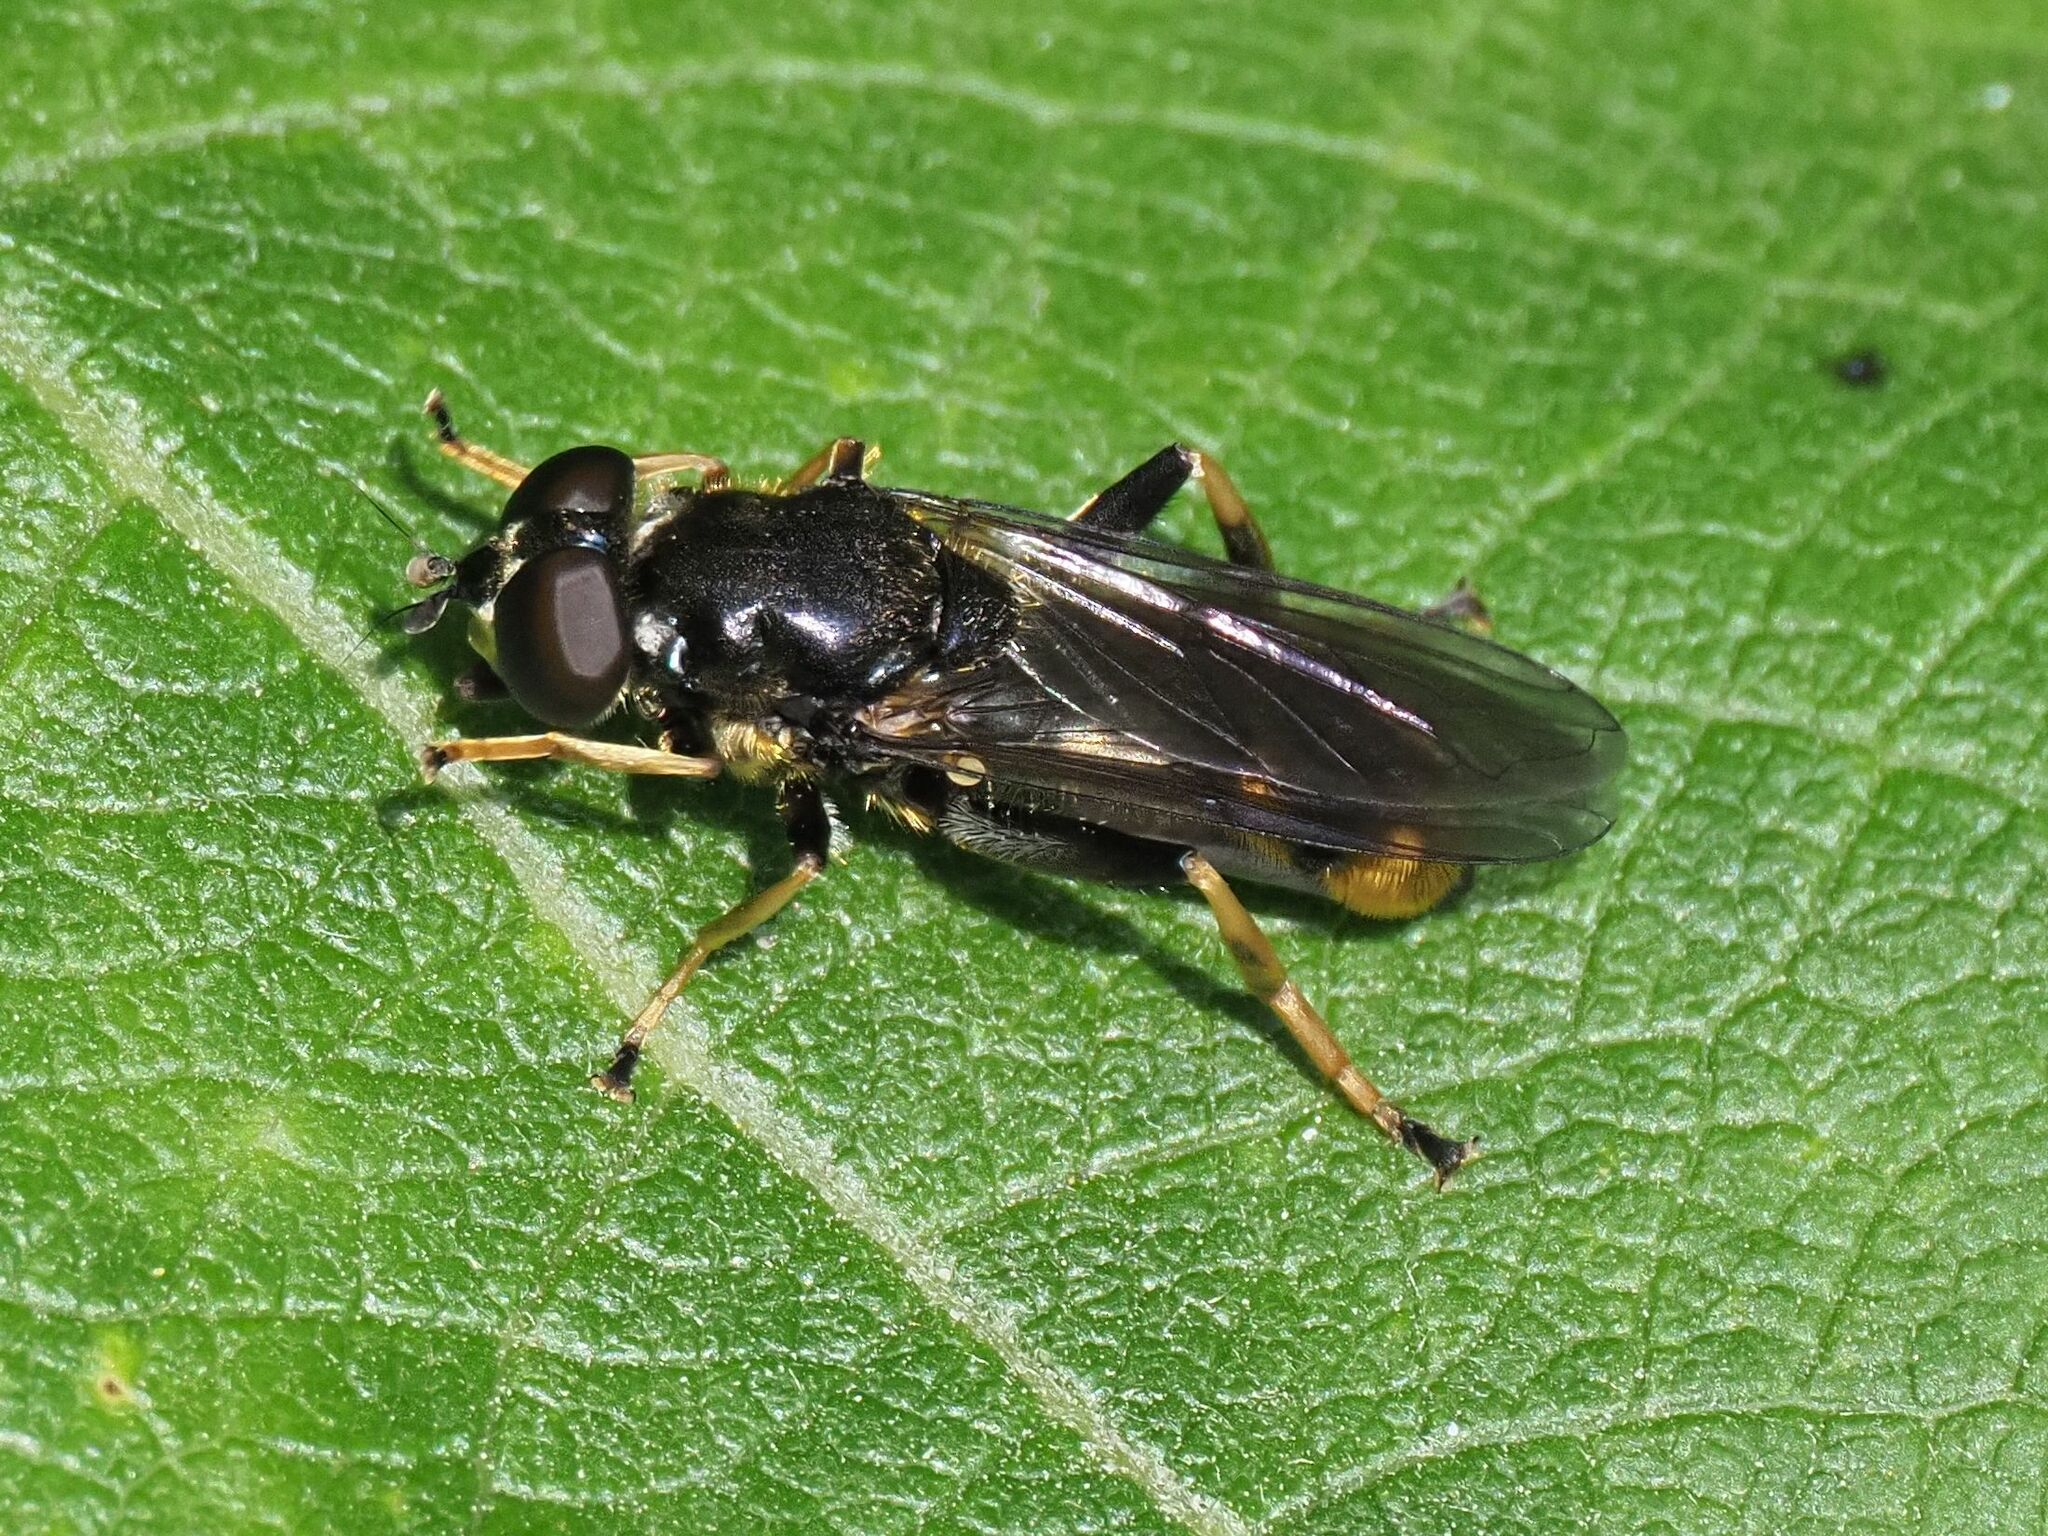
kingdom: Animalia
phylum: Arthropoda
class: Insecta
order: Diptera
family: Syrphidae
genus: Xylota
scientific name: Xylota sylvarum
